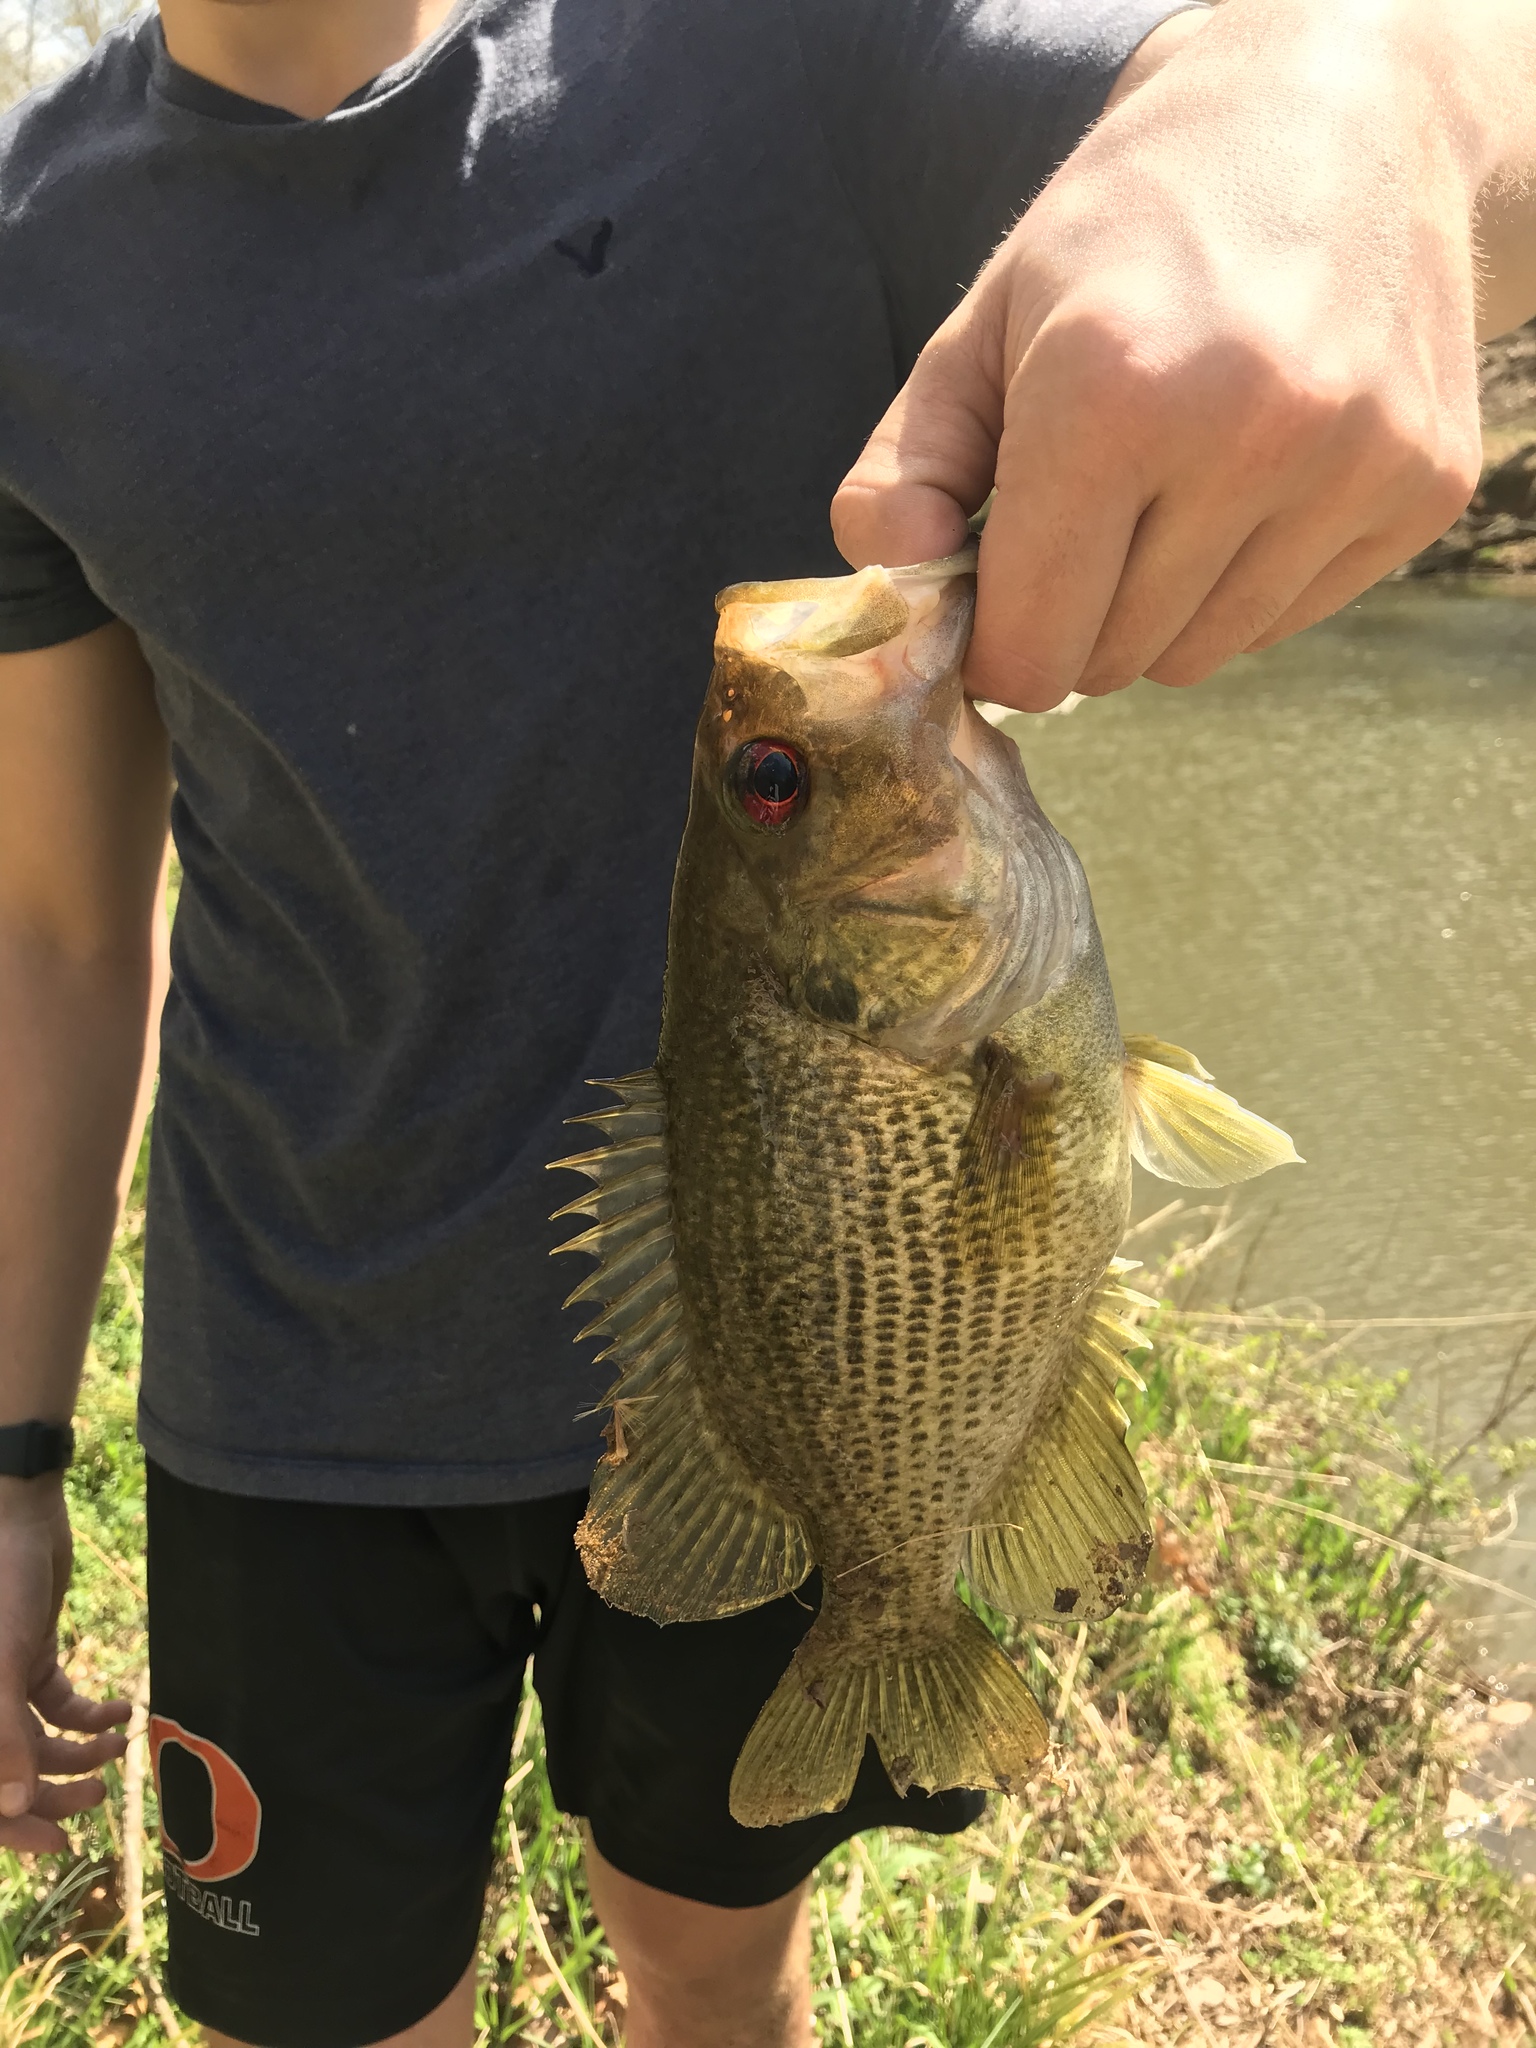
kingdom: Animalia
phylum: Chordata
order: Perciformes
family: Centrarchidae
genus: Ambloplites
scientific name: Ambloplites cavifrons
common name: Roanoke bass
